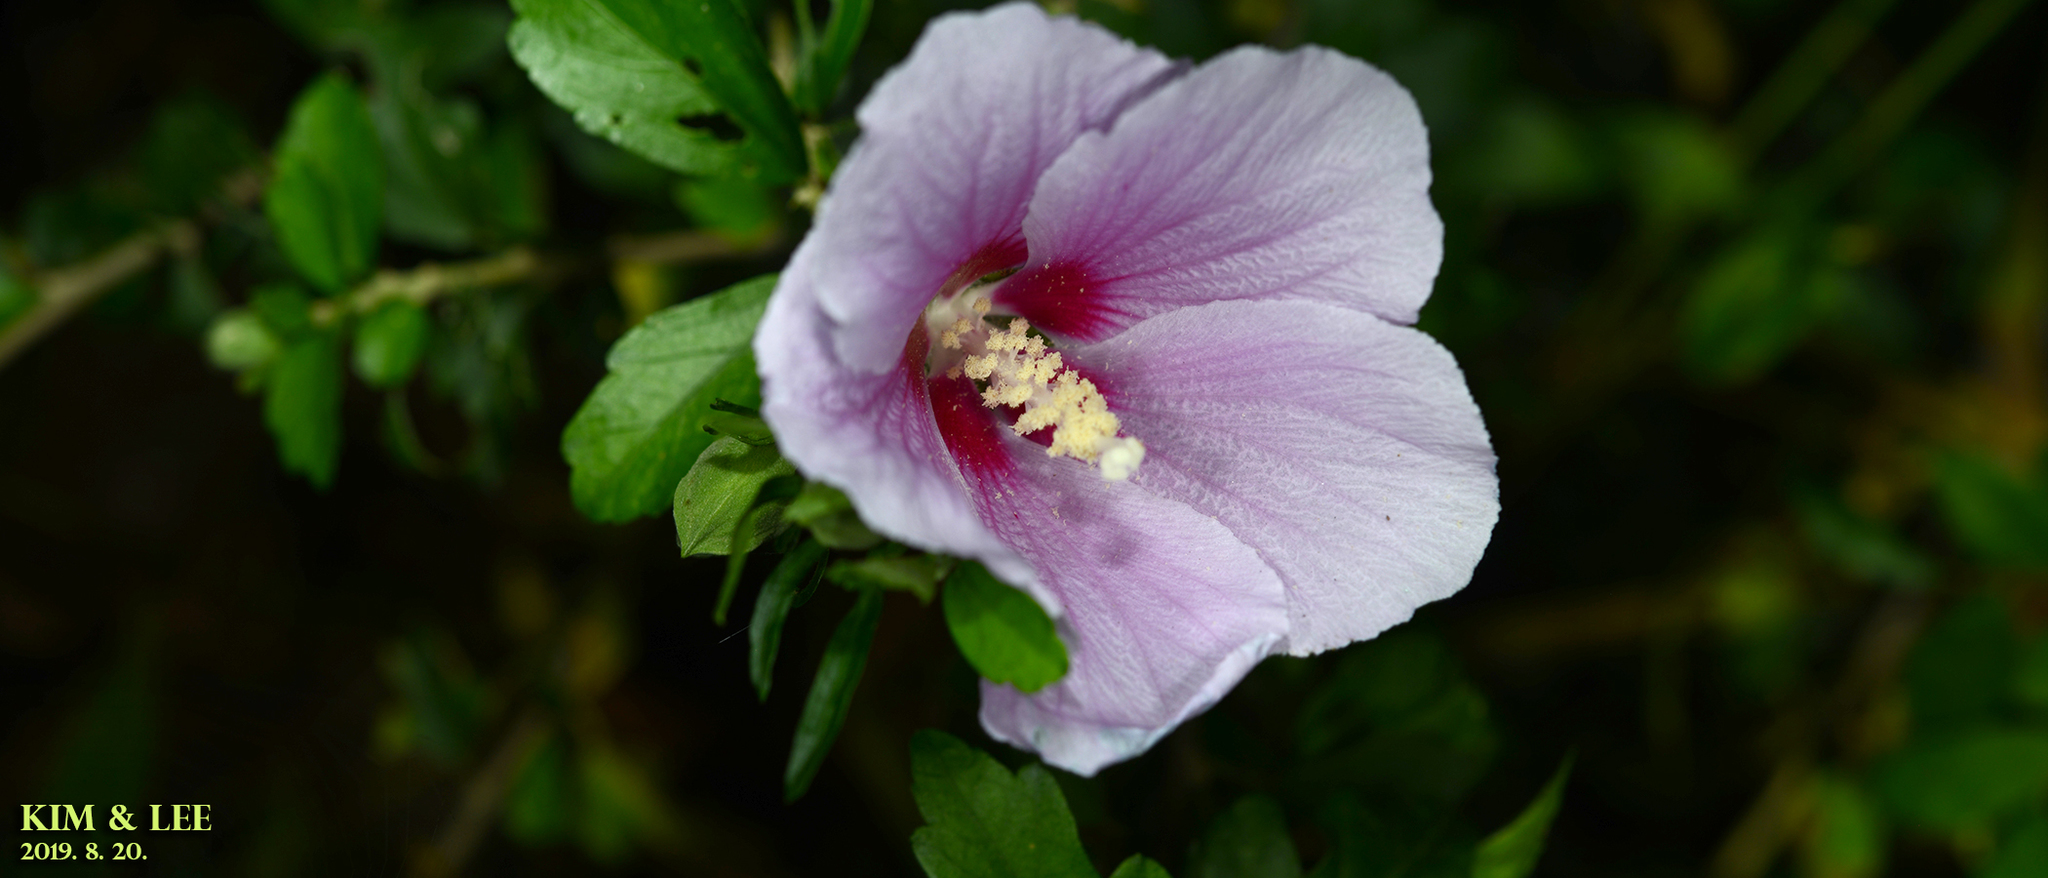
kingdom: Plantae
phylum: Tracheophyta
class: Magnoliopsida
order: Malvales
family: Malvaceae
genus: Hibiscus
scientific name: Hibiscus syriacus
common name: Syrian ketmia
